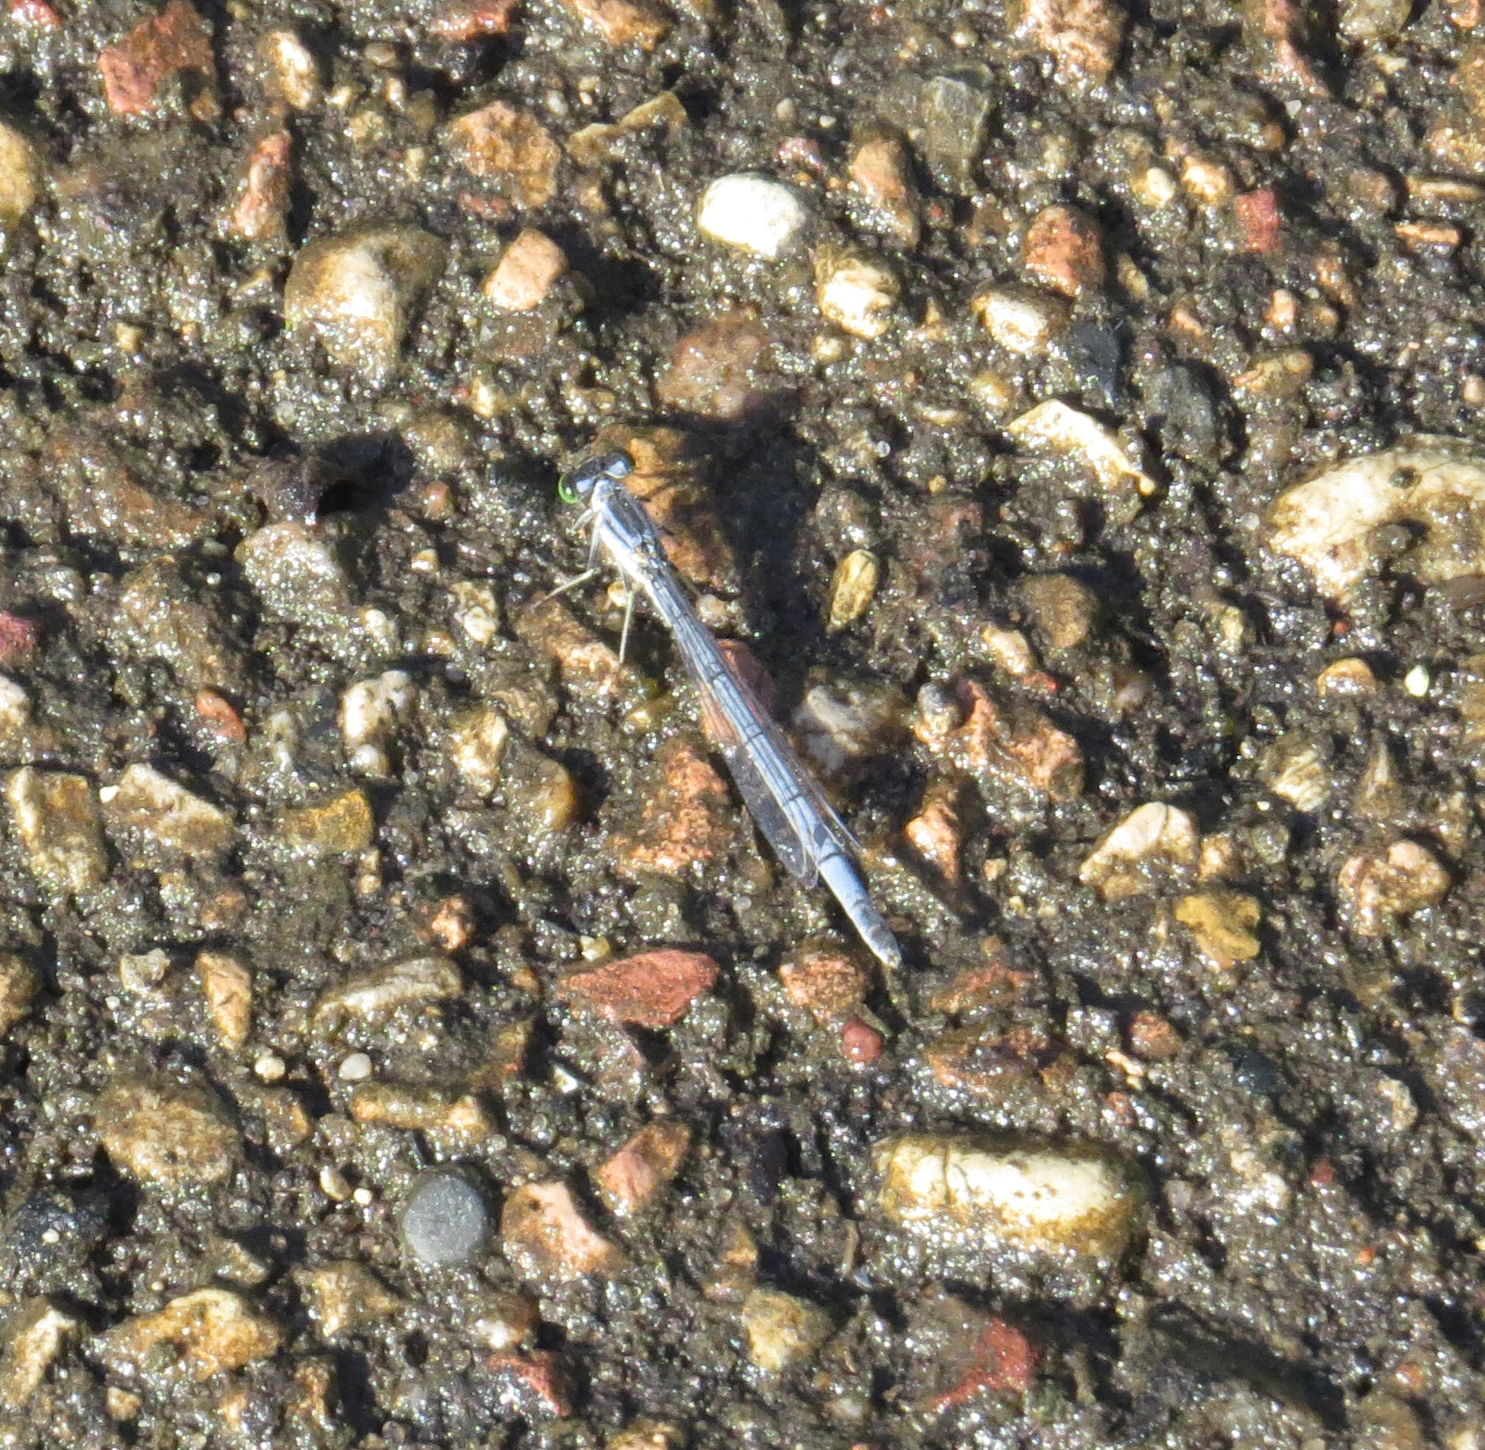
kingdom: Animalia
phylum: Arthropoda
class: Insecta
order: Odonata
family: Coenagrionidae
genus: Ischnura
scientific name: Ischnura verticalis
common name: Eastern forktail
